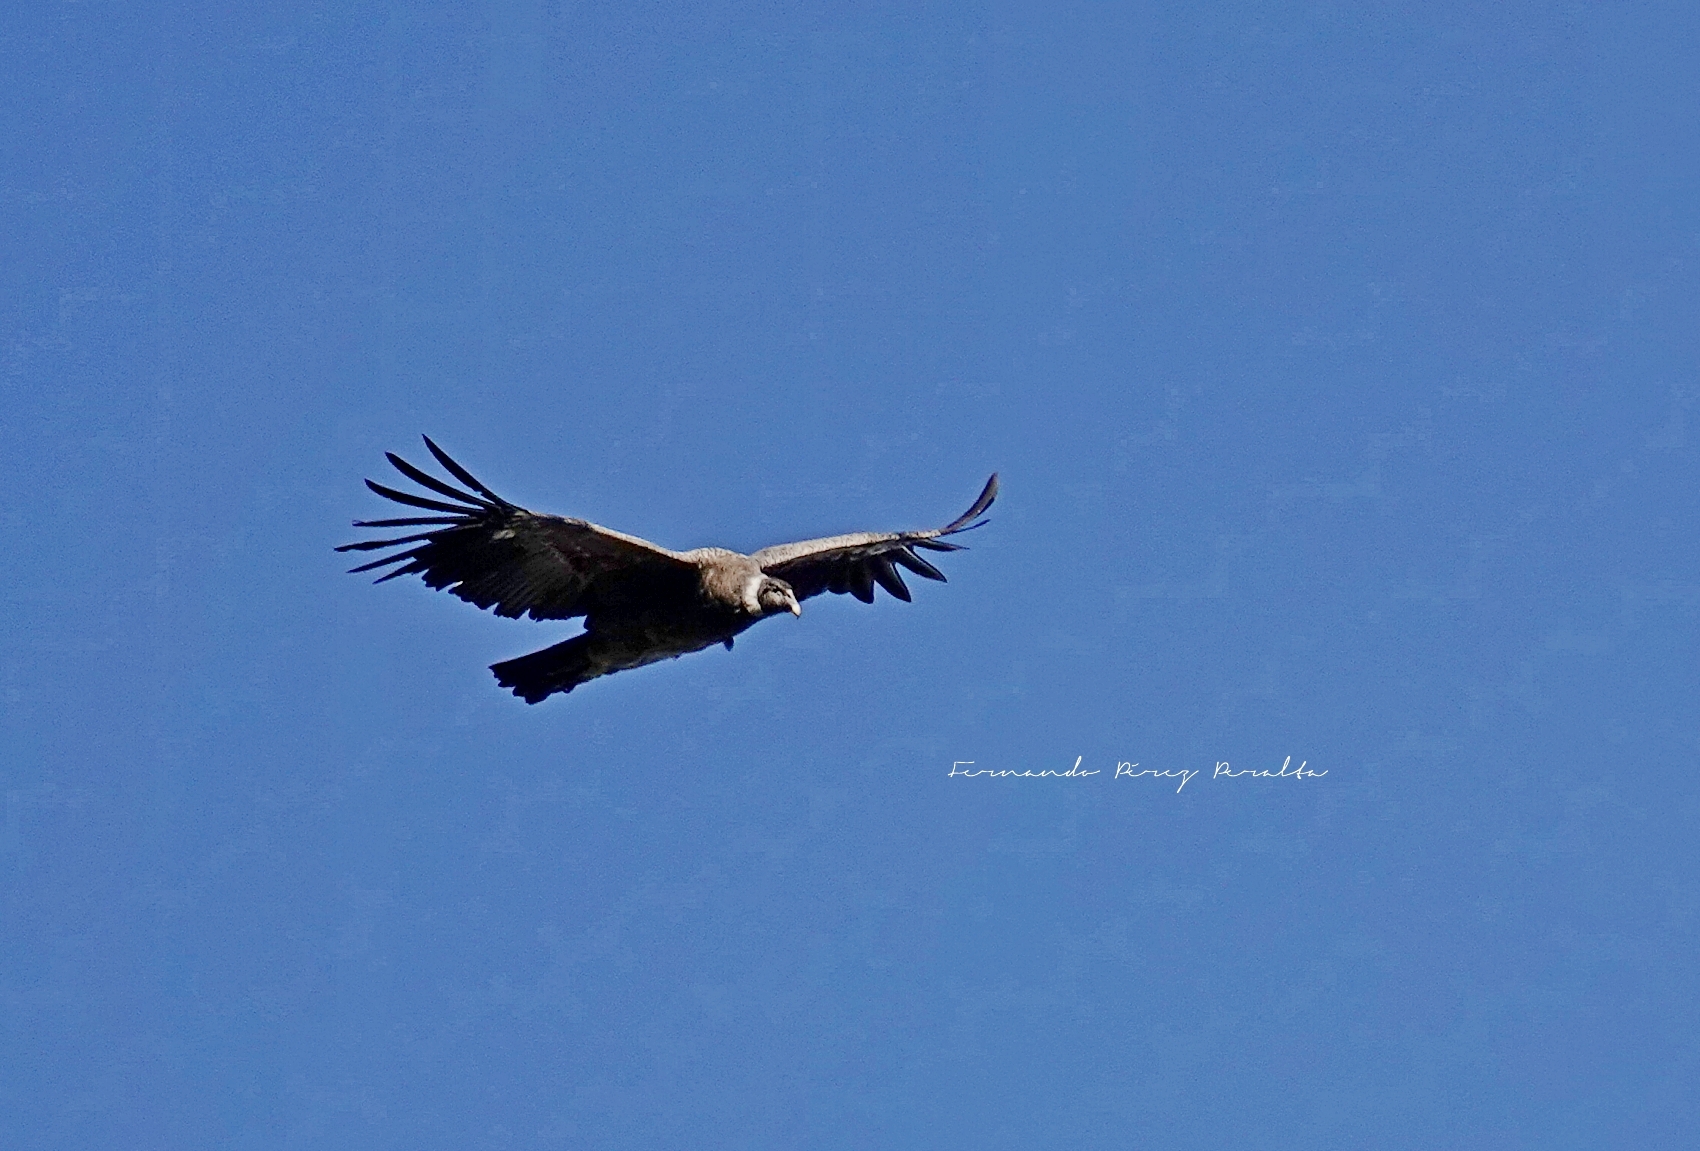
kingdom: Animalia
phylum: Chordata
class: Aves
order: Accipitriformes
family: Cathartidae
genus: Vultur
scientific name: Vultur gryphus
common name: Andean condor
